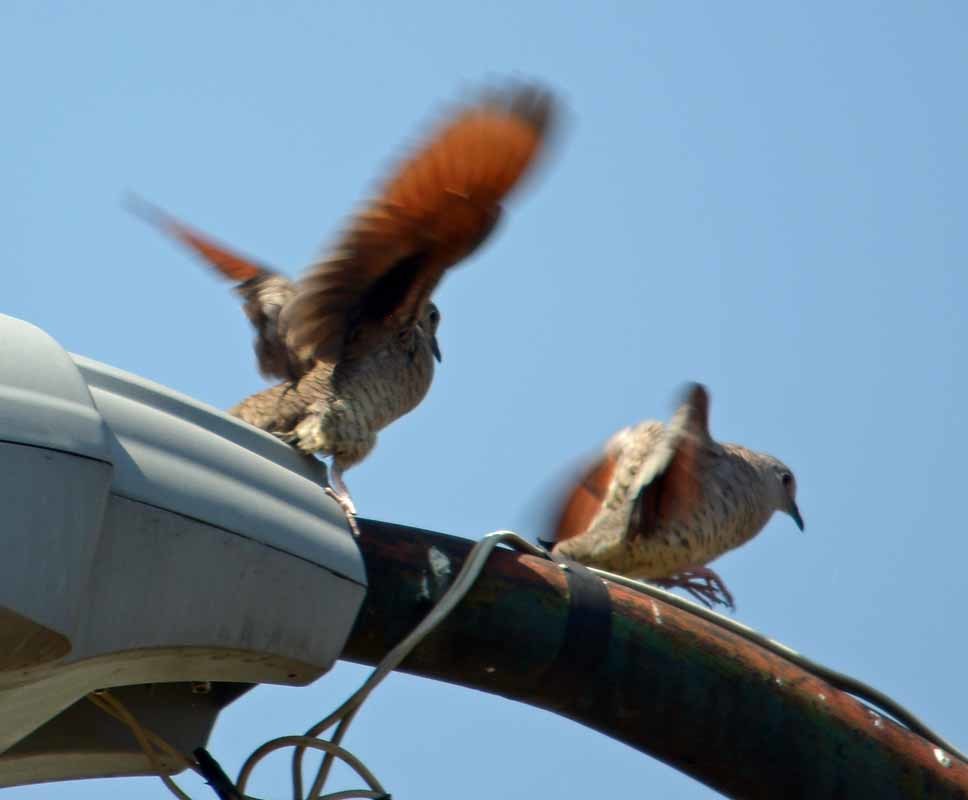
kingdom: Animalia
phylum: Chordata
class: Aves
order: Columbiformes
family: Columbidae
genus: Columbina
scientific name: Columbina inca
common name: Inca dove
